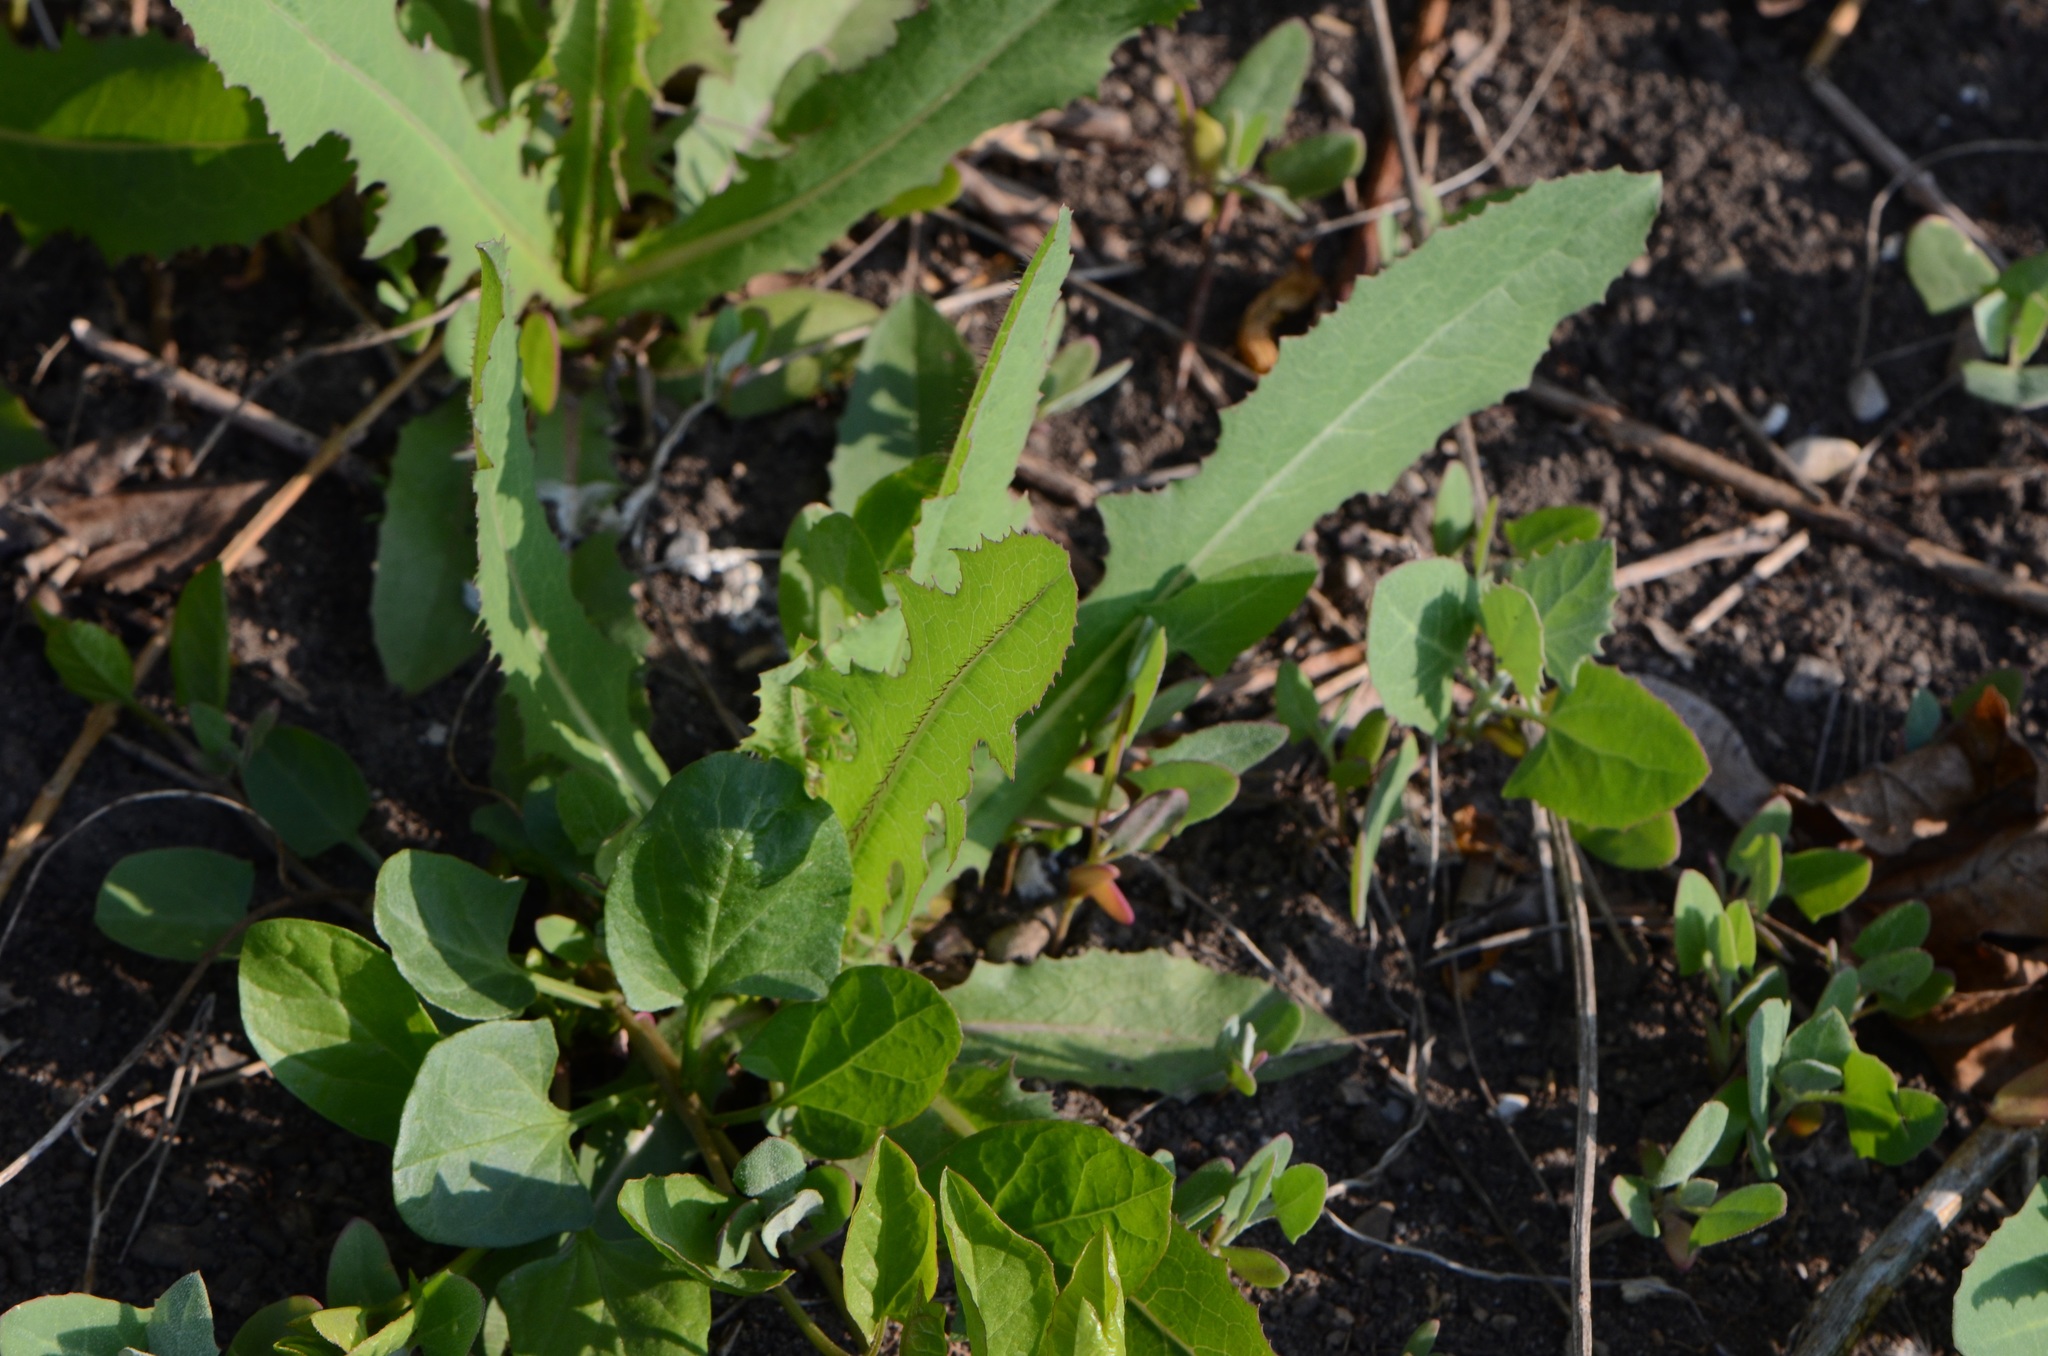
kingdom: Plantae
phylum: Tracheophyta
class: Magnoliopsida
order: Asterales
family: Asteraceae
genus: Lactuca
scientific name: Lactuca serriola
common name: Prickly lettuce
